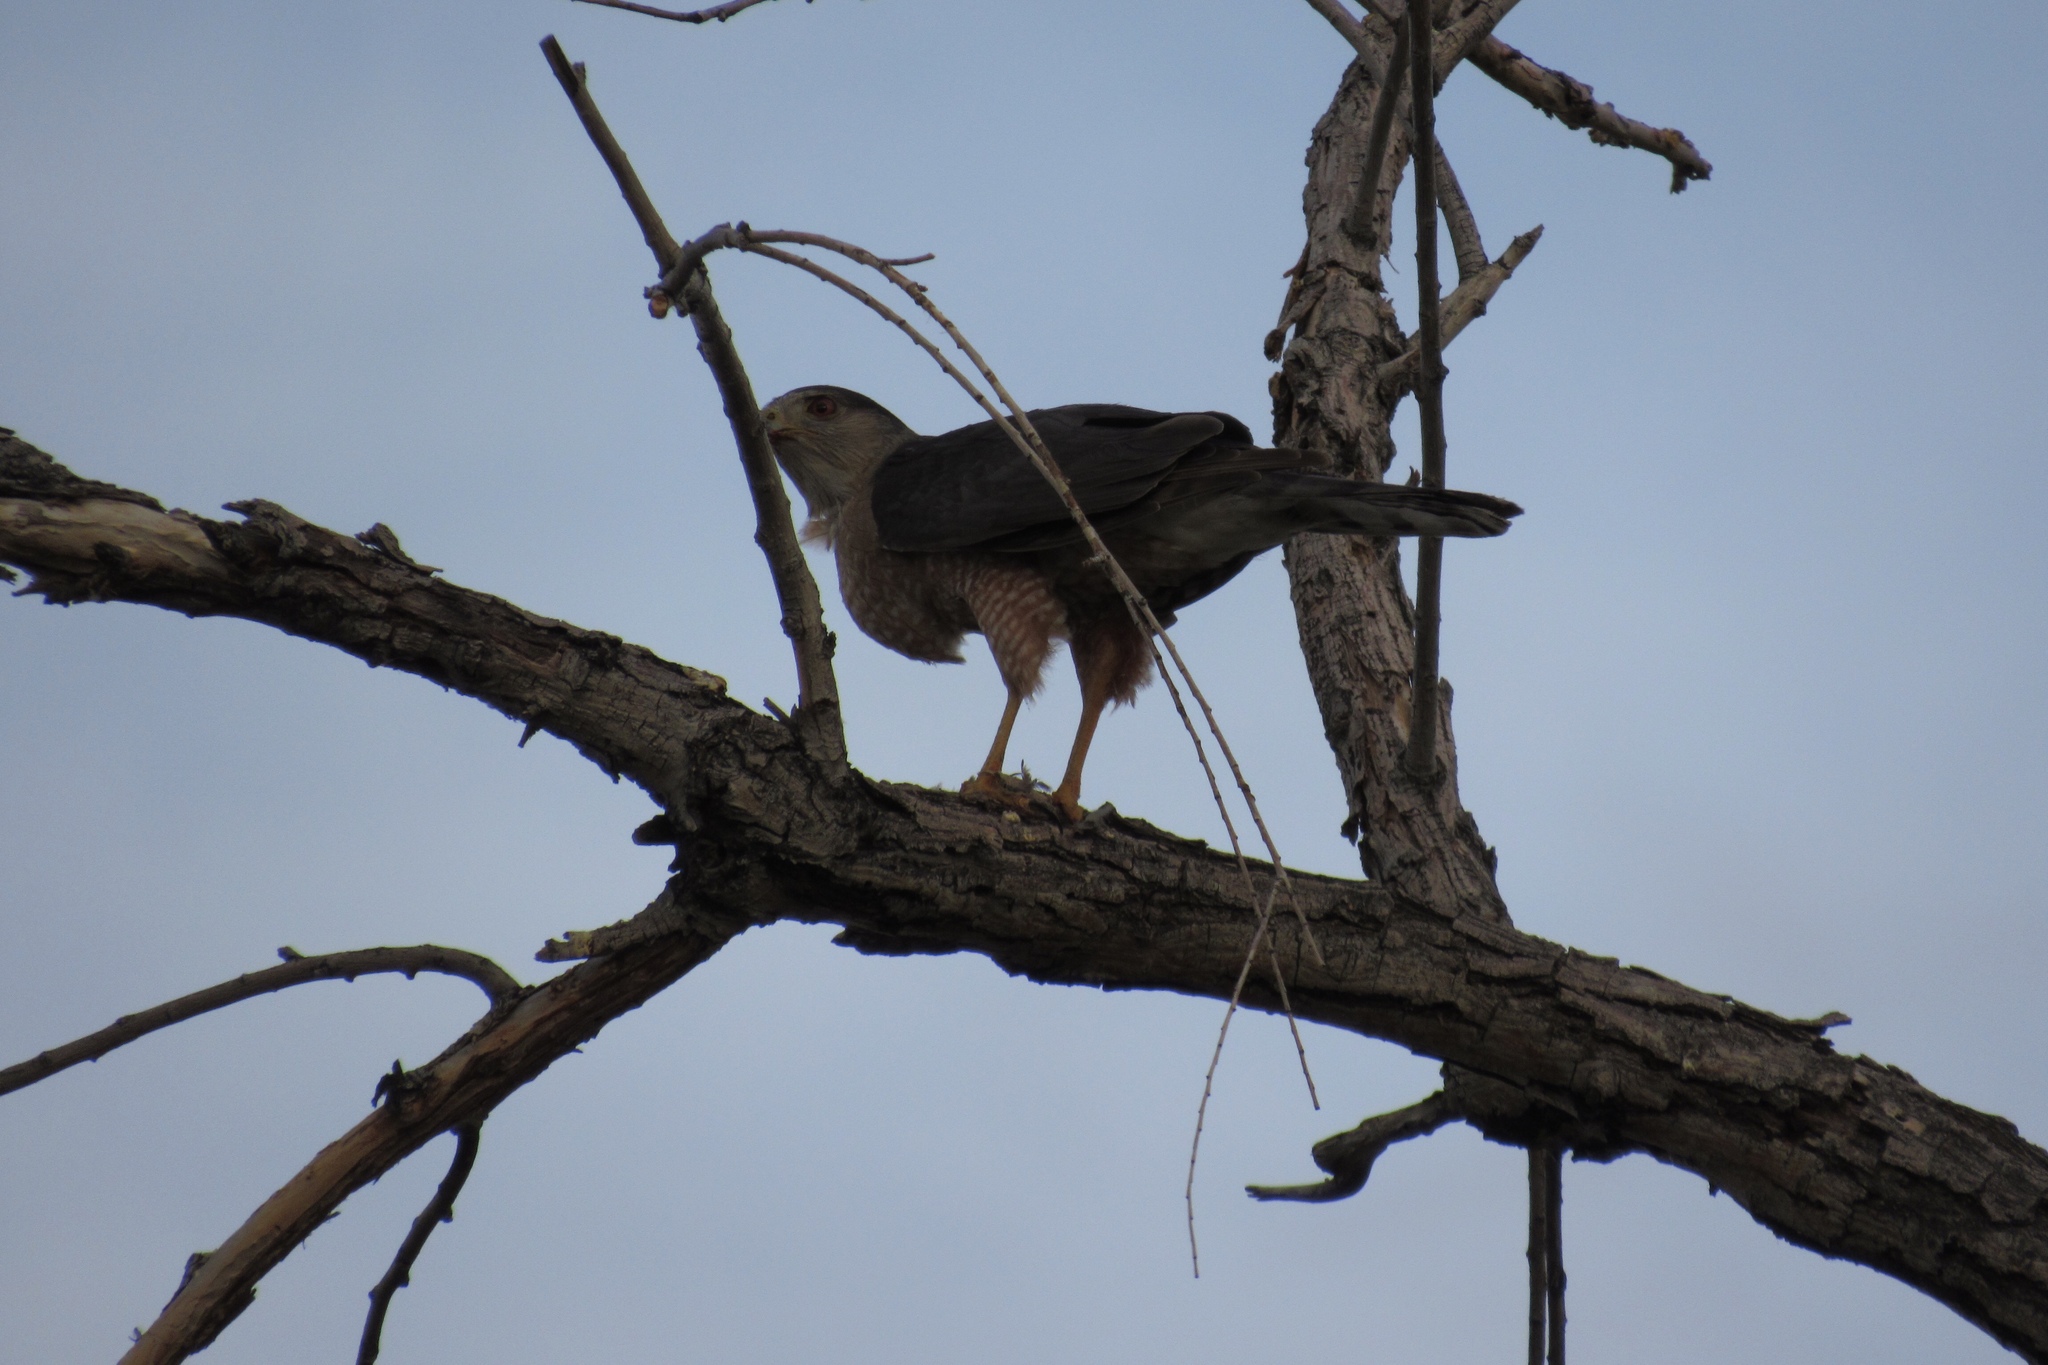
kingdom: Animalia
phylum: Chordata
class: Aves
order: Accipitriformes
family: Accipitridae
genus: Accipiter
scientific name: Accipiter cooperii
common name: Cooper's hawk
